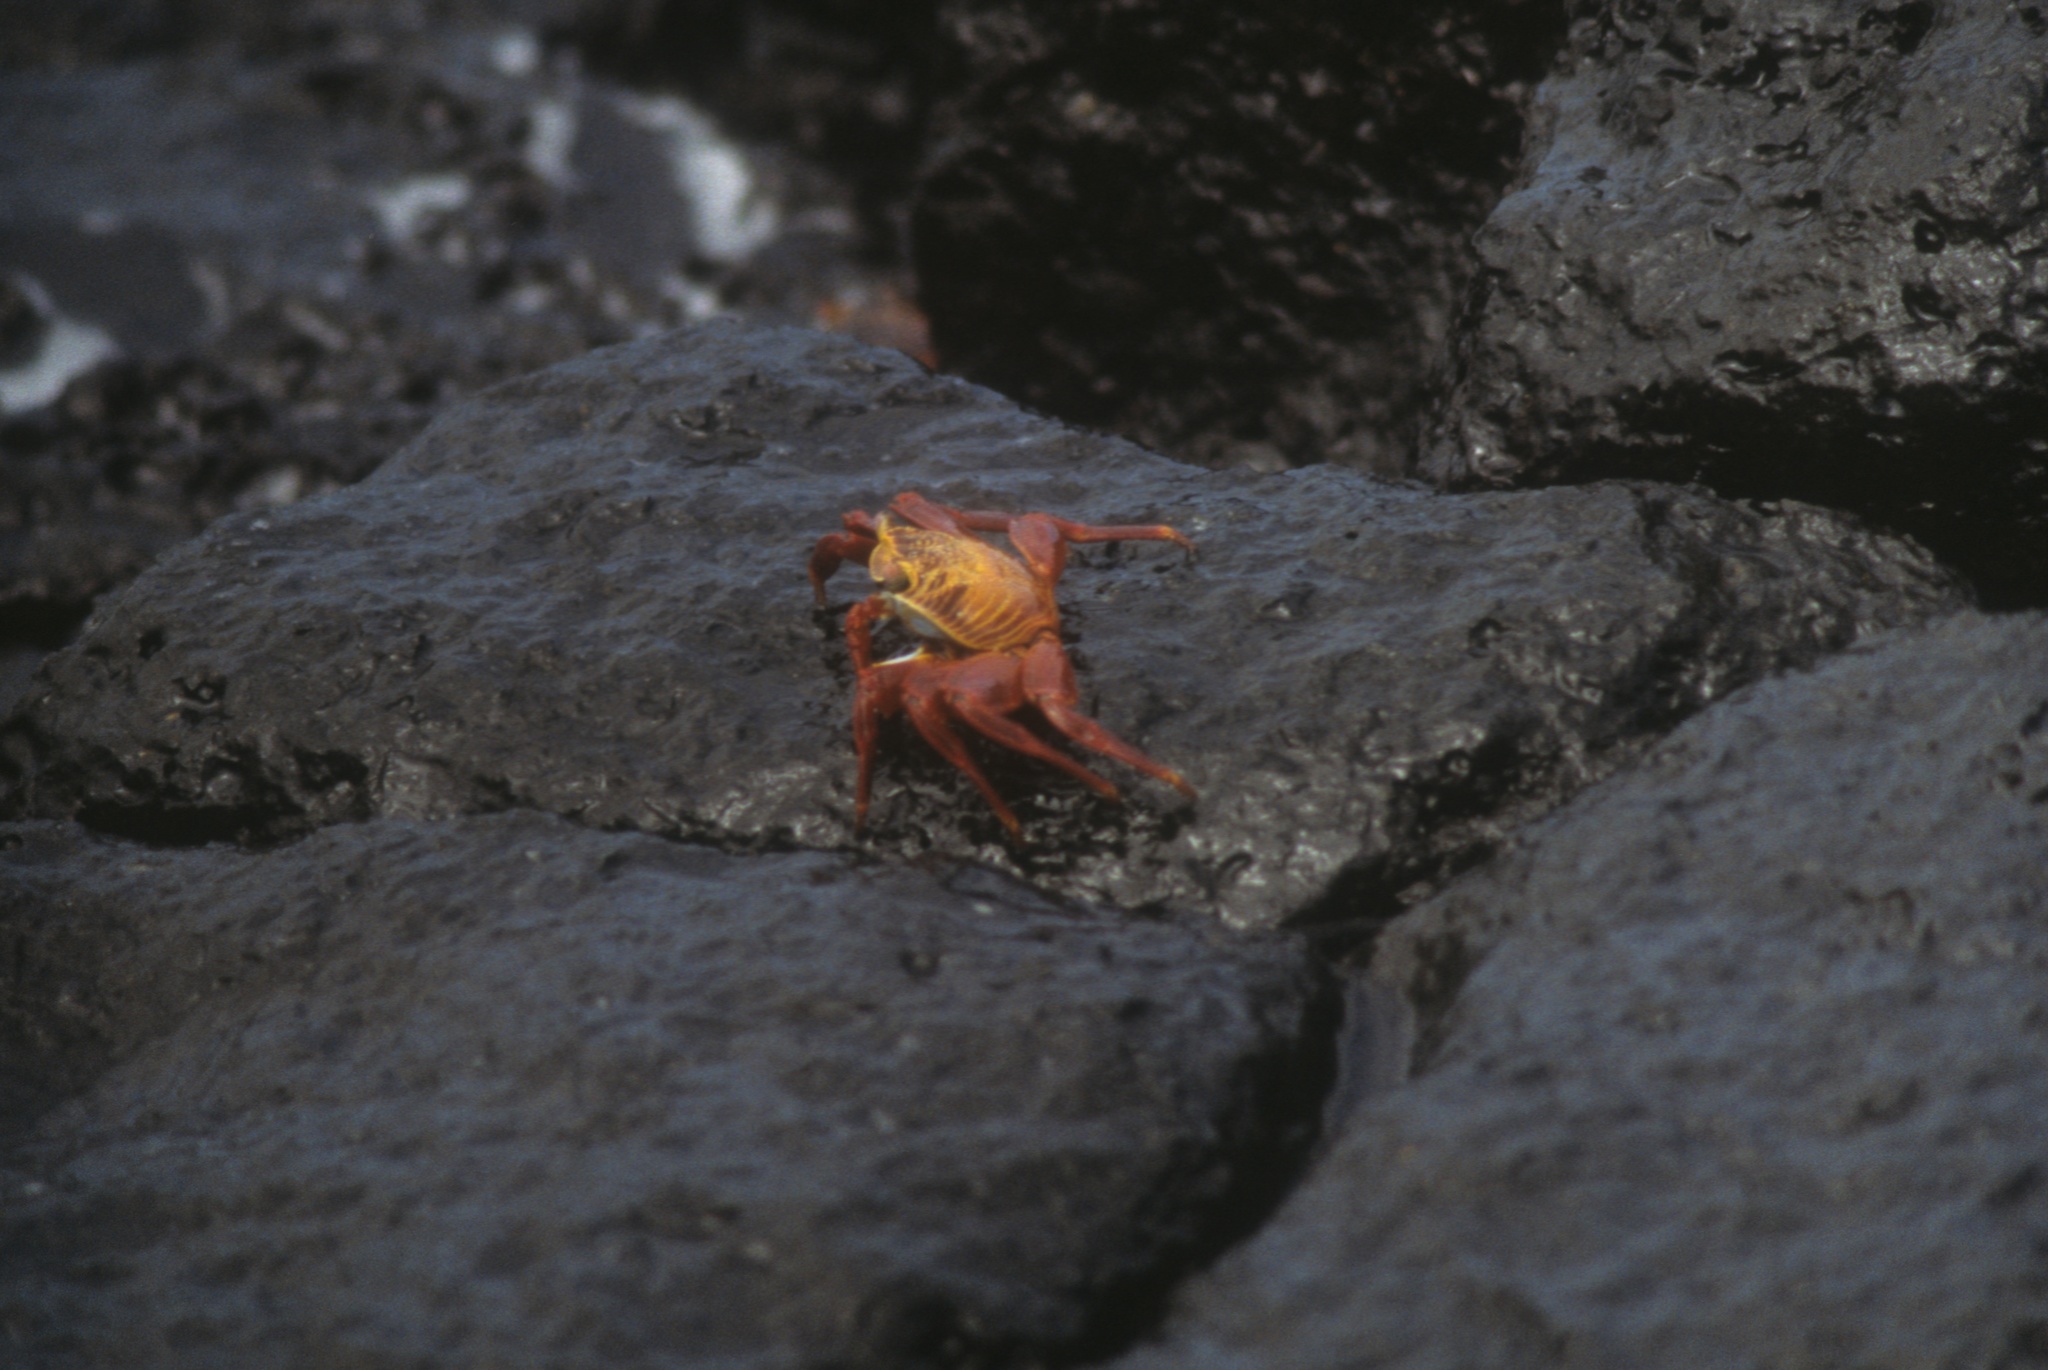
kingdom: Animalia
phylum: Arthropoda
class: Malacostraca
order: Decapoda
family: Grapsidae
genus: Grapsus
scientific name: Grapsus grapsus
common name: Sally lightfoot
